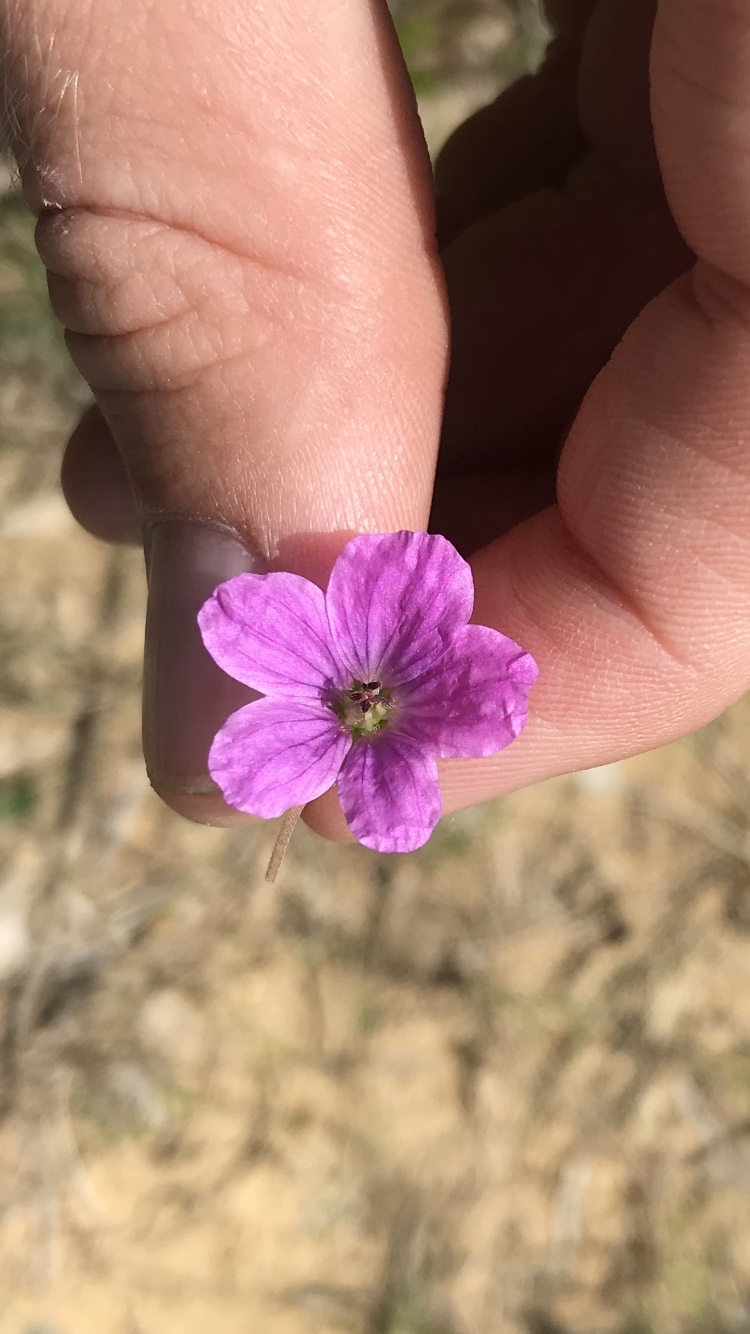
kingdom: Plantae
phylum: Tracheophyta
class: Magnoliopsida
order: Geraniales
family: Geraniaceae
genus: Erodium
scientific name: Erodium texanum
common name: Texas stork's-bill
